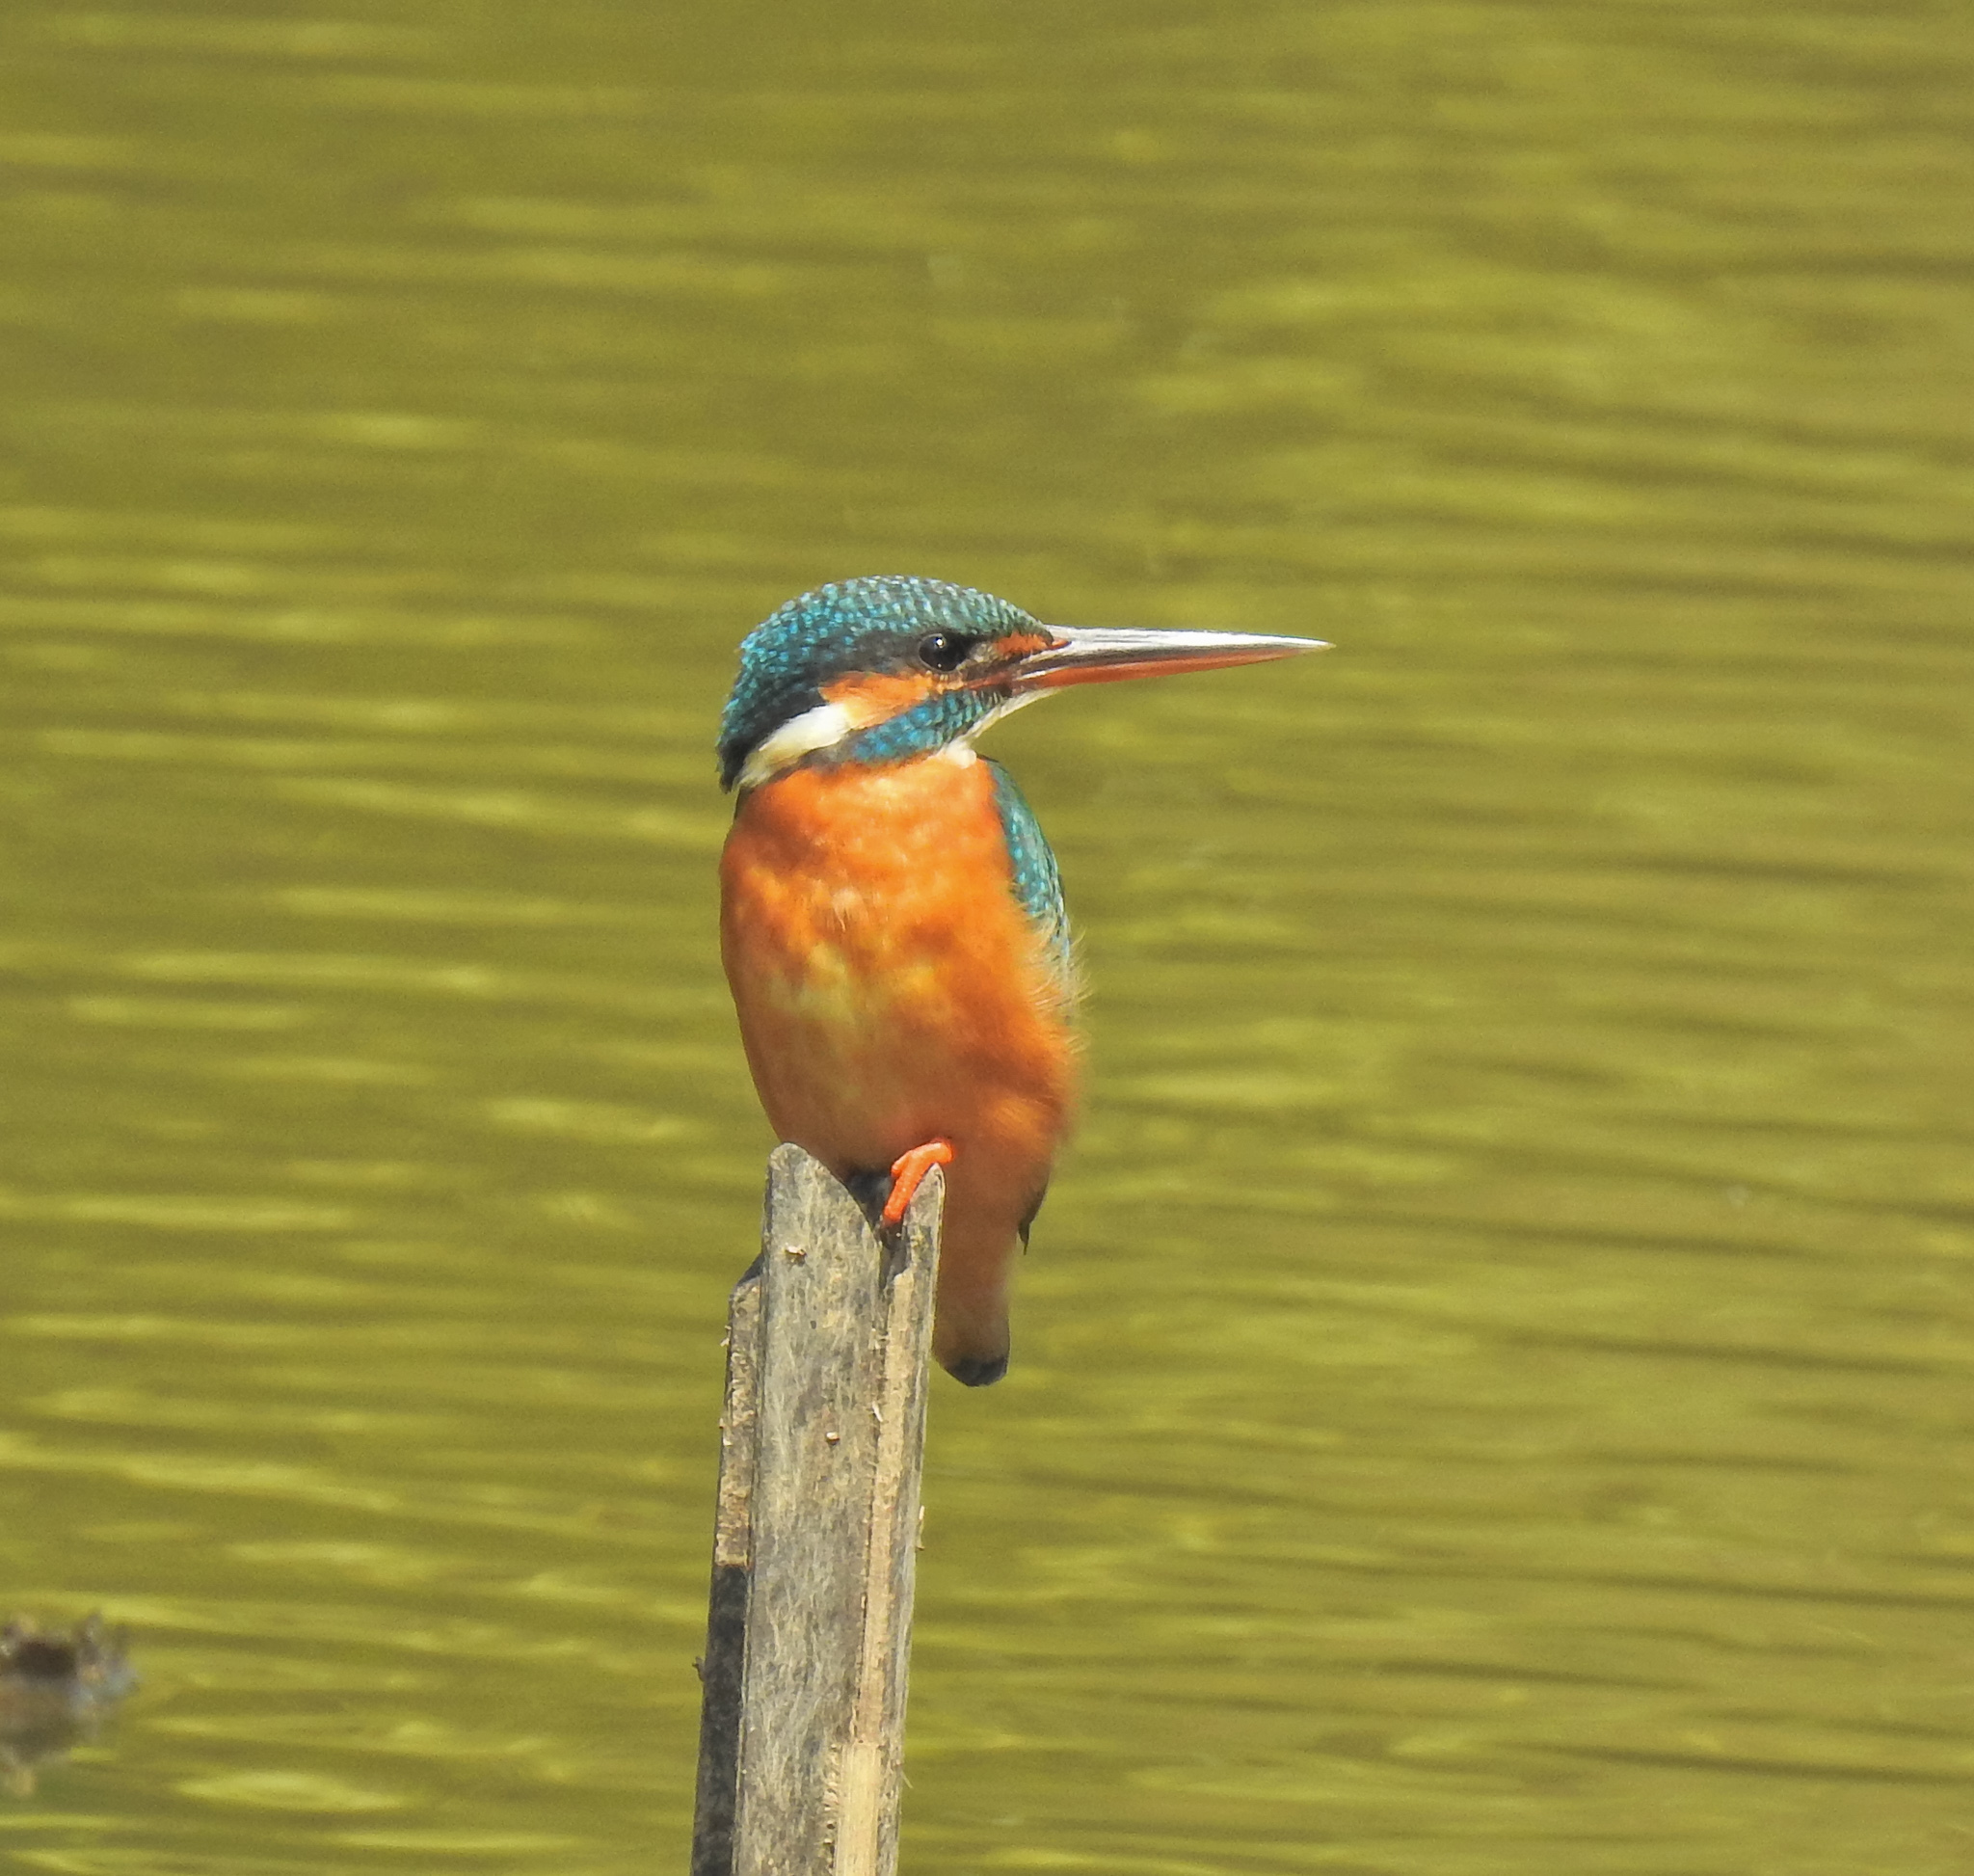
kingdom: Animalia
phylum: Chordata
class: Aves
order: Coraciiformes
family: Alcedinidae
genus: Alcedo
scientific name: Alcedo atthis
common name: Common kingfisher
